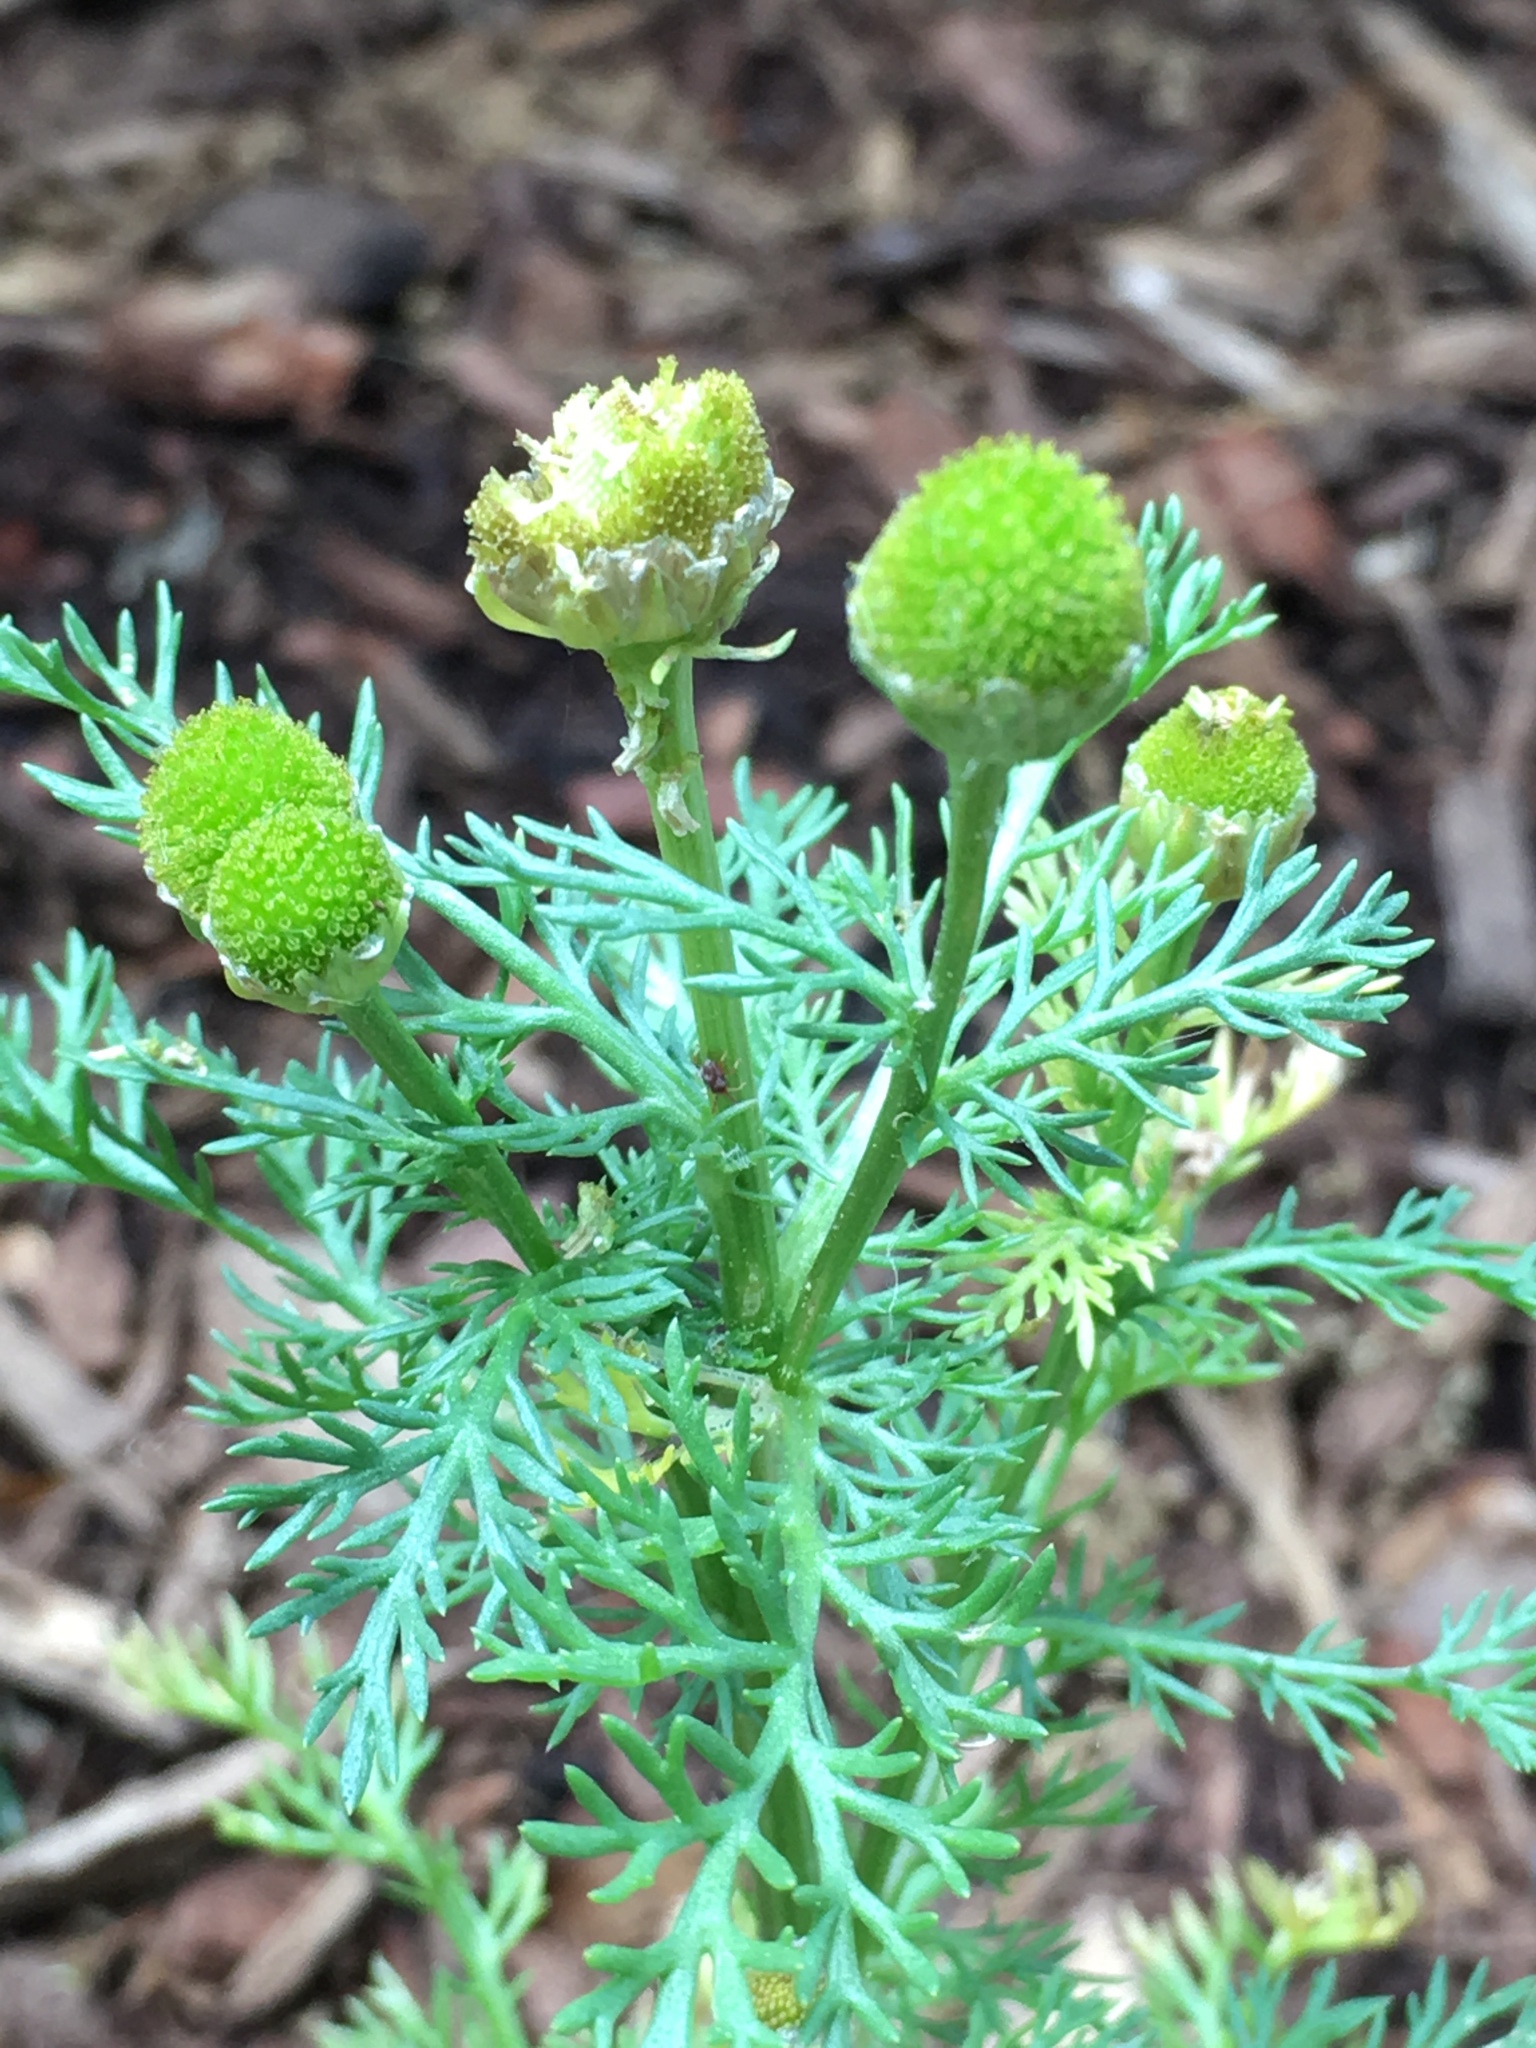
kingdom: Plantae
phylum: Tracheophyta
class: Magnoliopsida
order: Asterales
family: Asteraceae
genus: Matricaria
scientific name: Matricaria discoidea
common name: Disc mayweed
